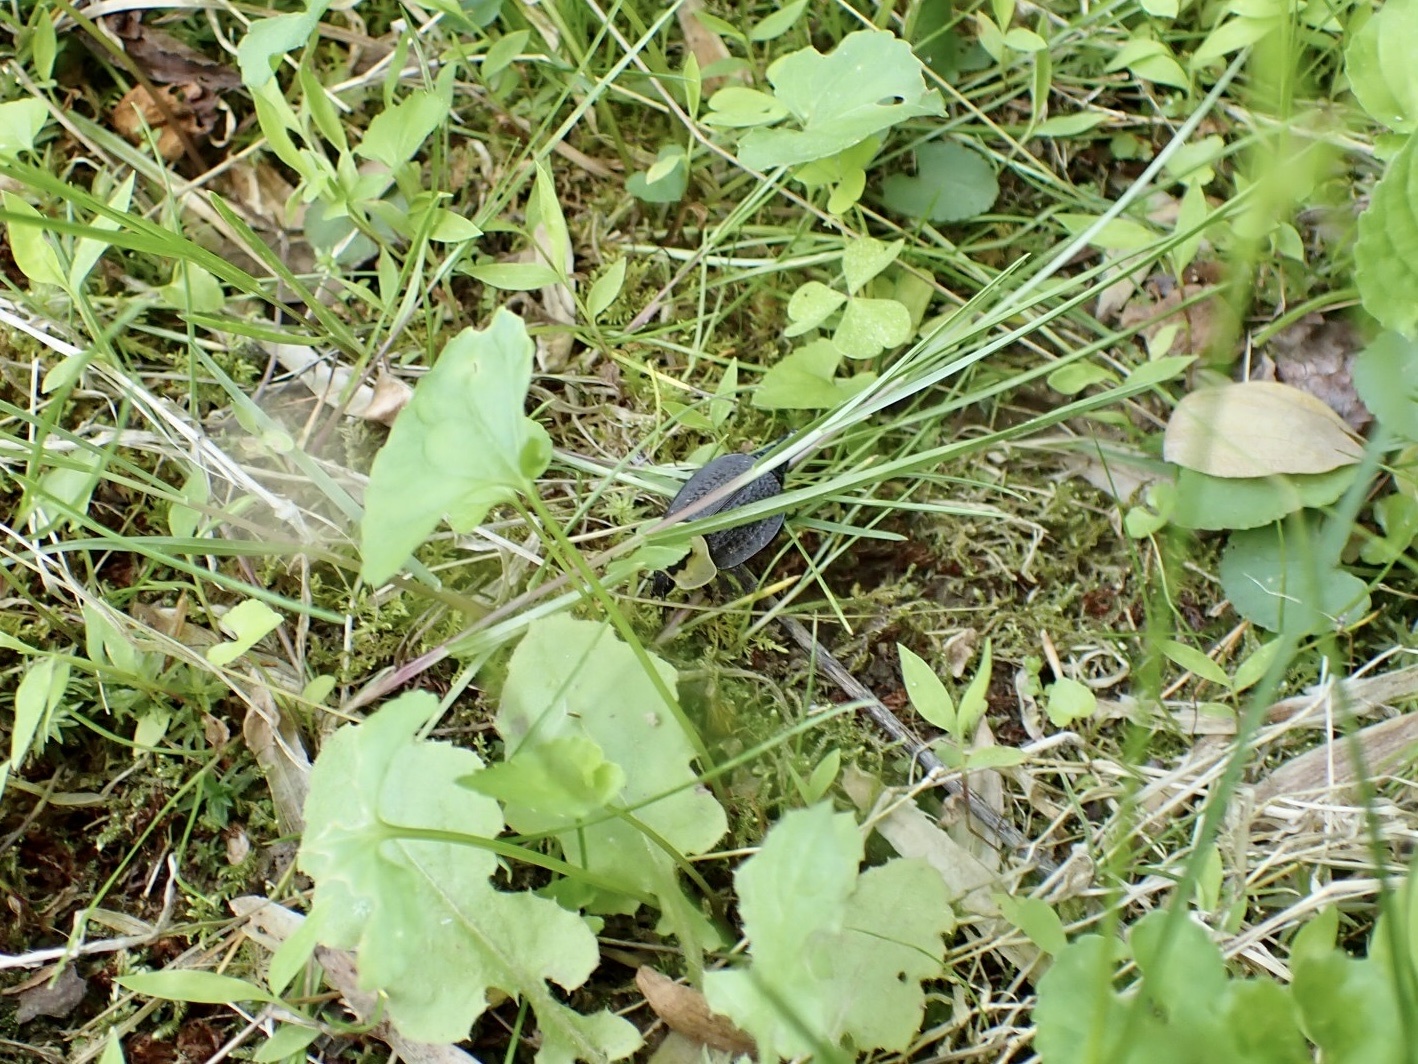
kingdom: Animalia
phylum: Arthropoda
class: Insecta
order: Coleoptera
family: Staphylinidae
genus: Necrophila
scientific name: Necrophila americana
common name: American carrion beetle
